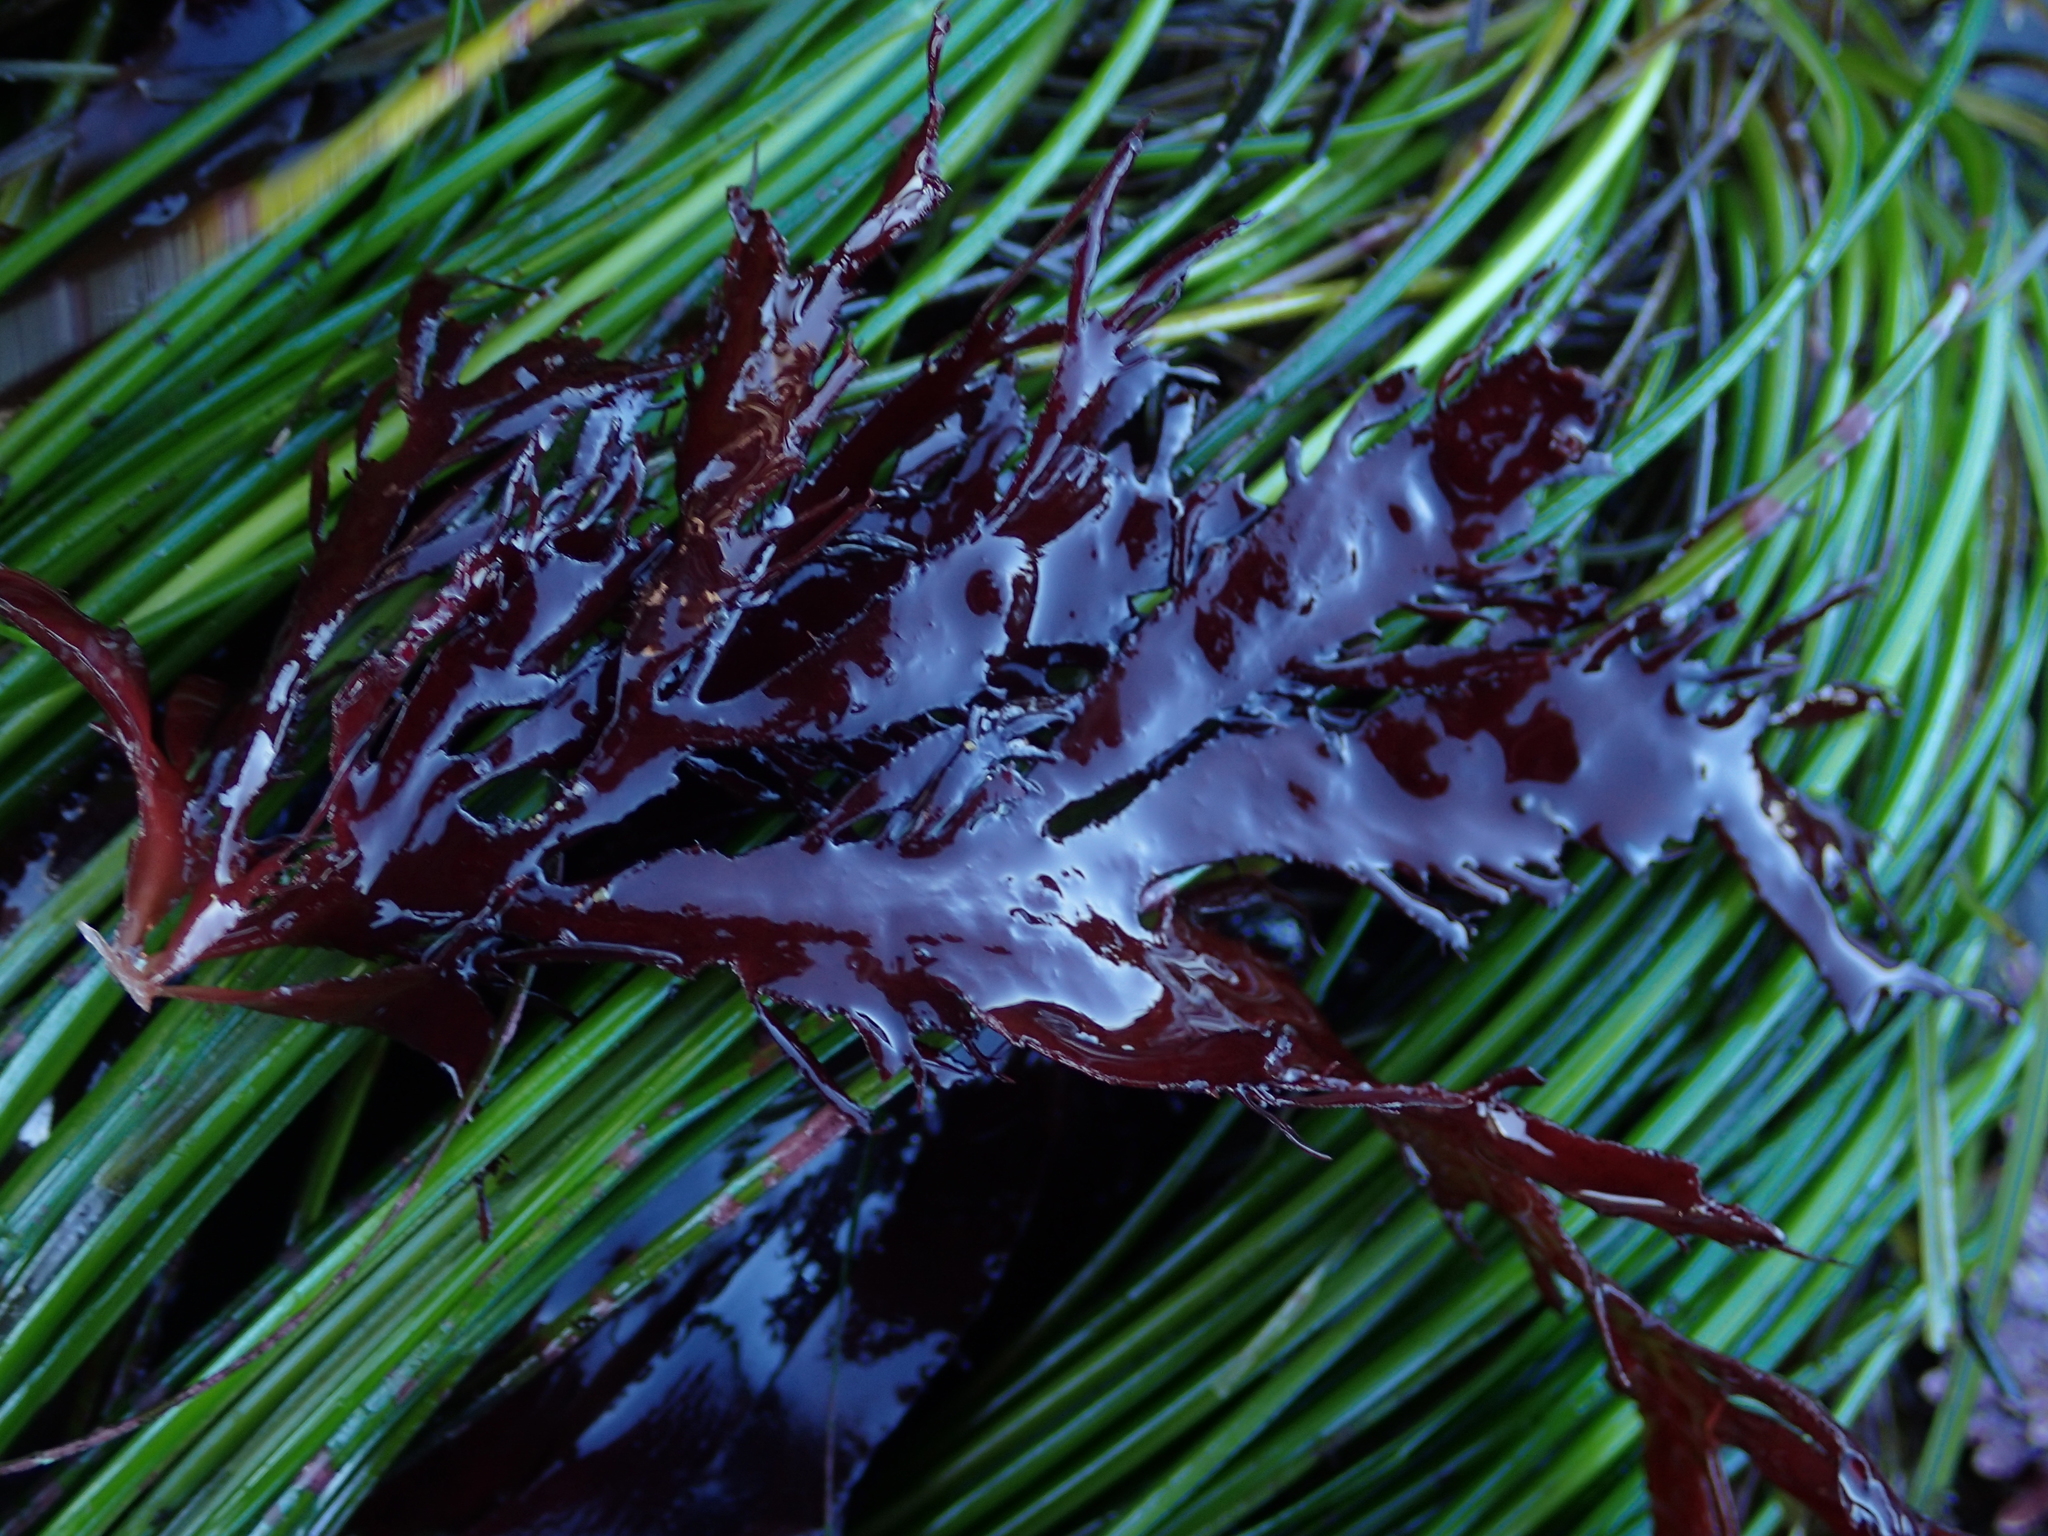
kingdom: Plantae
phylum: Rhodophyta
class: Florideophyceae
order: Gigartinales
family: Dumontiaceae
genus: Farlowia
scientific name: Farlowia compressa
